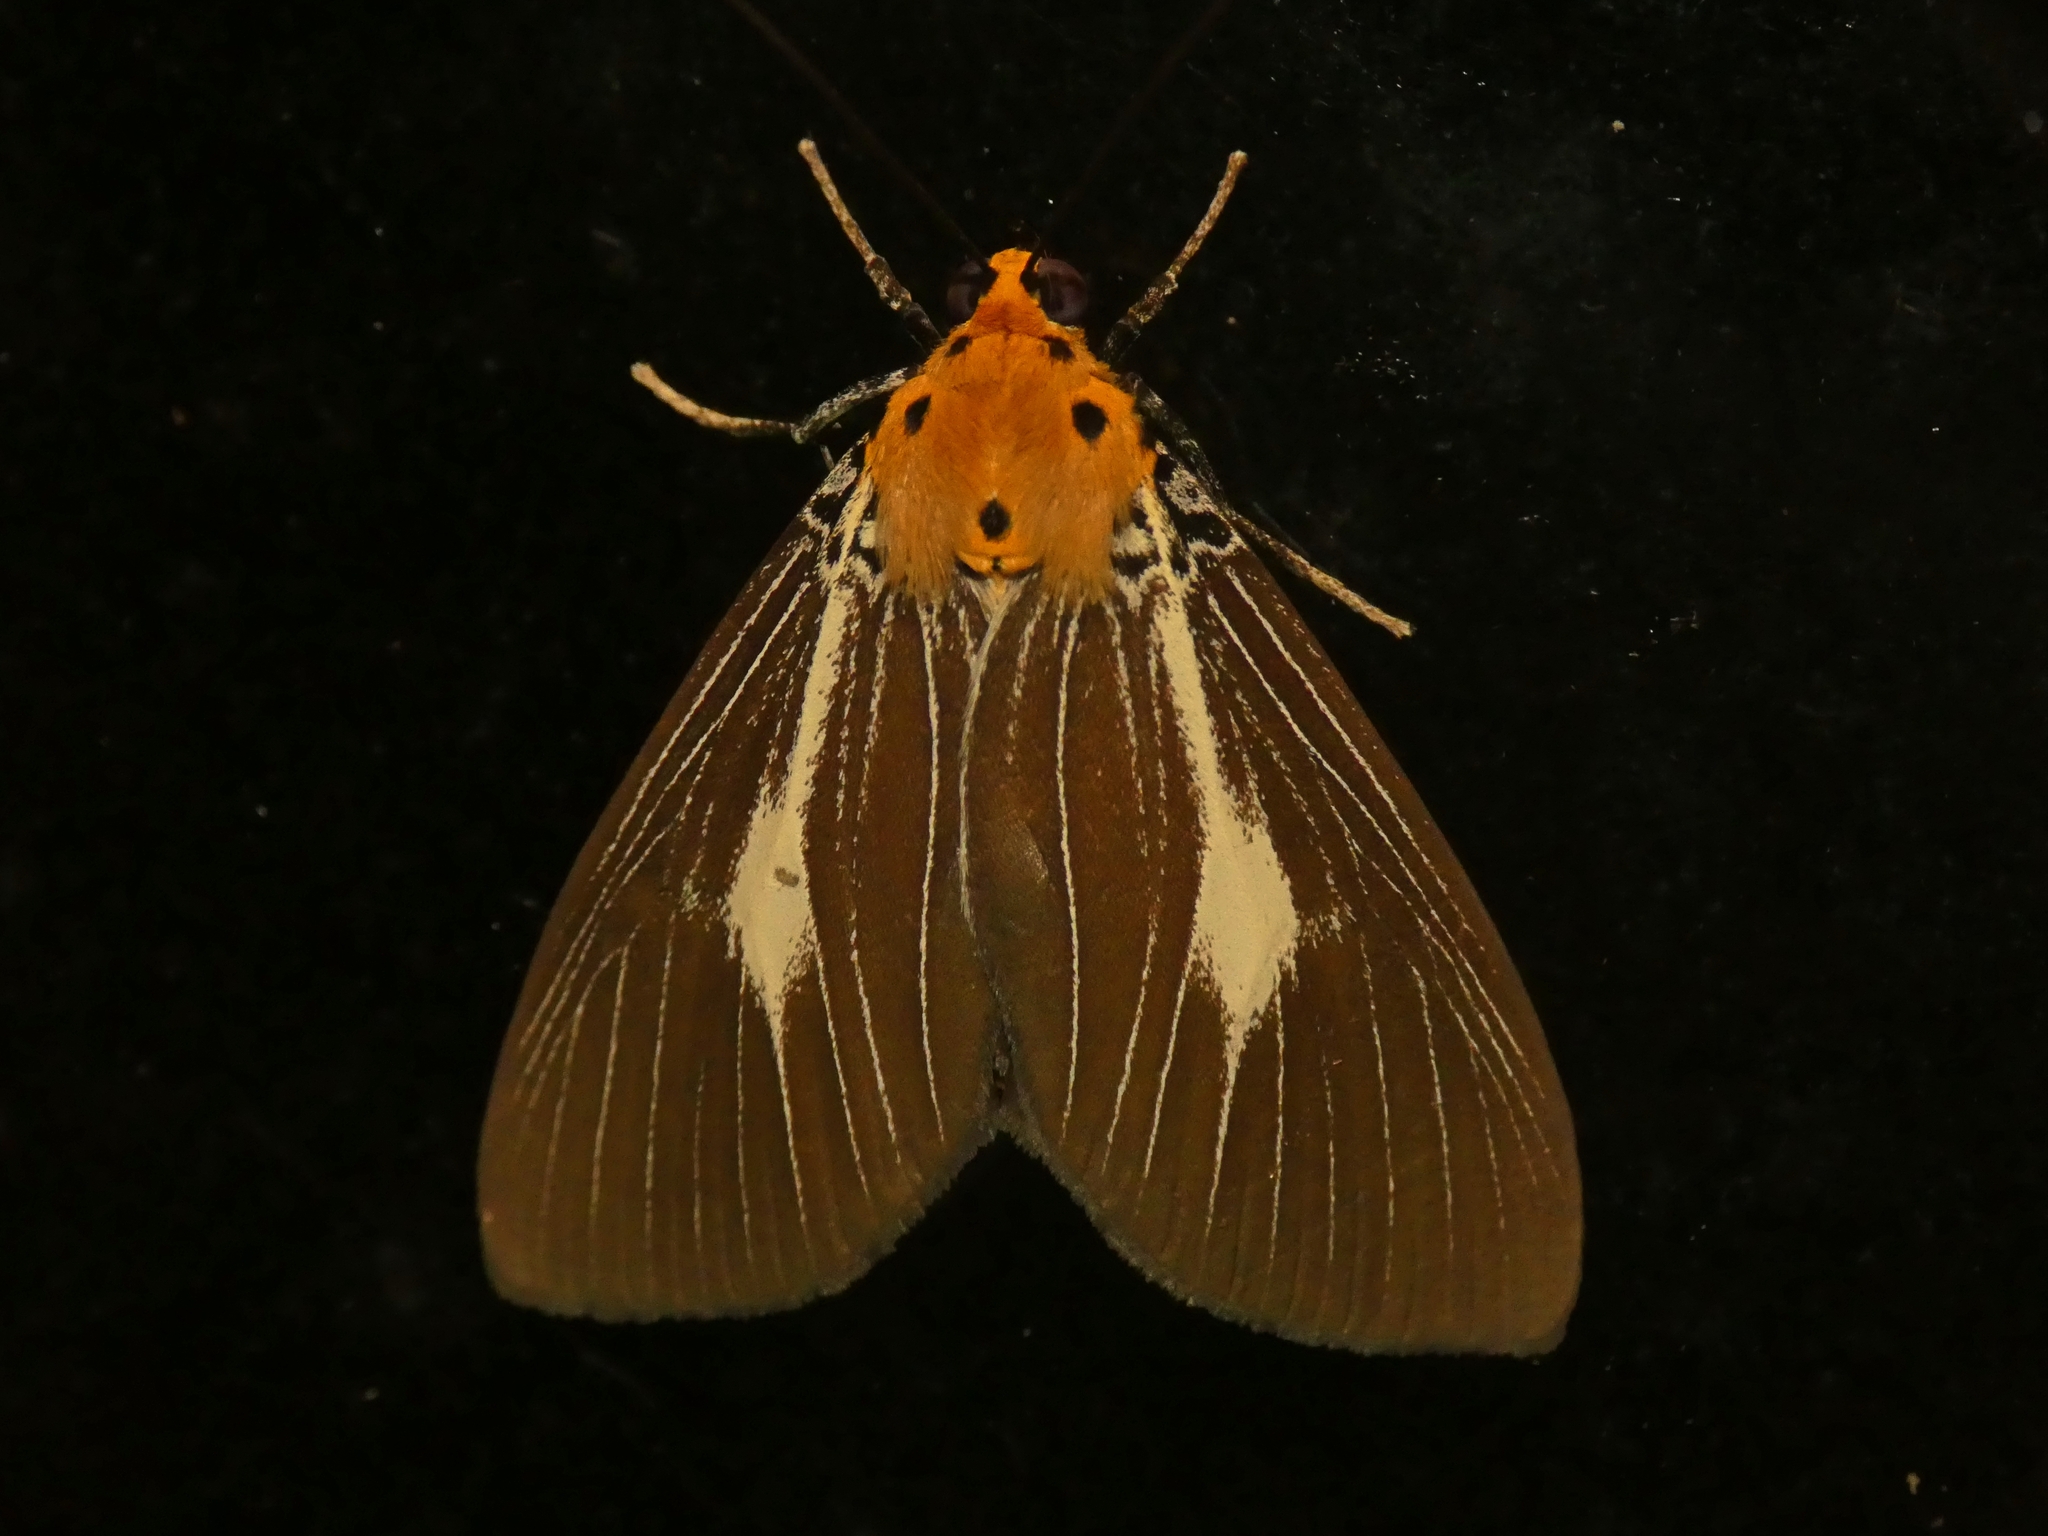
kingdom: Animalia
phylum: Arthropoda
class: Insecta
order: Lepidoptera
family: Erebidae
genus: Asota
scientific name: Asota heliconia
